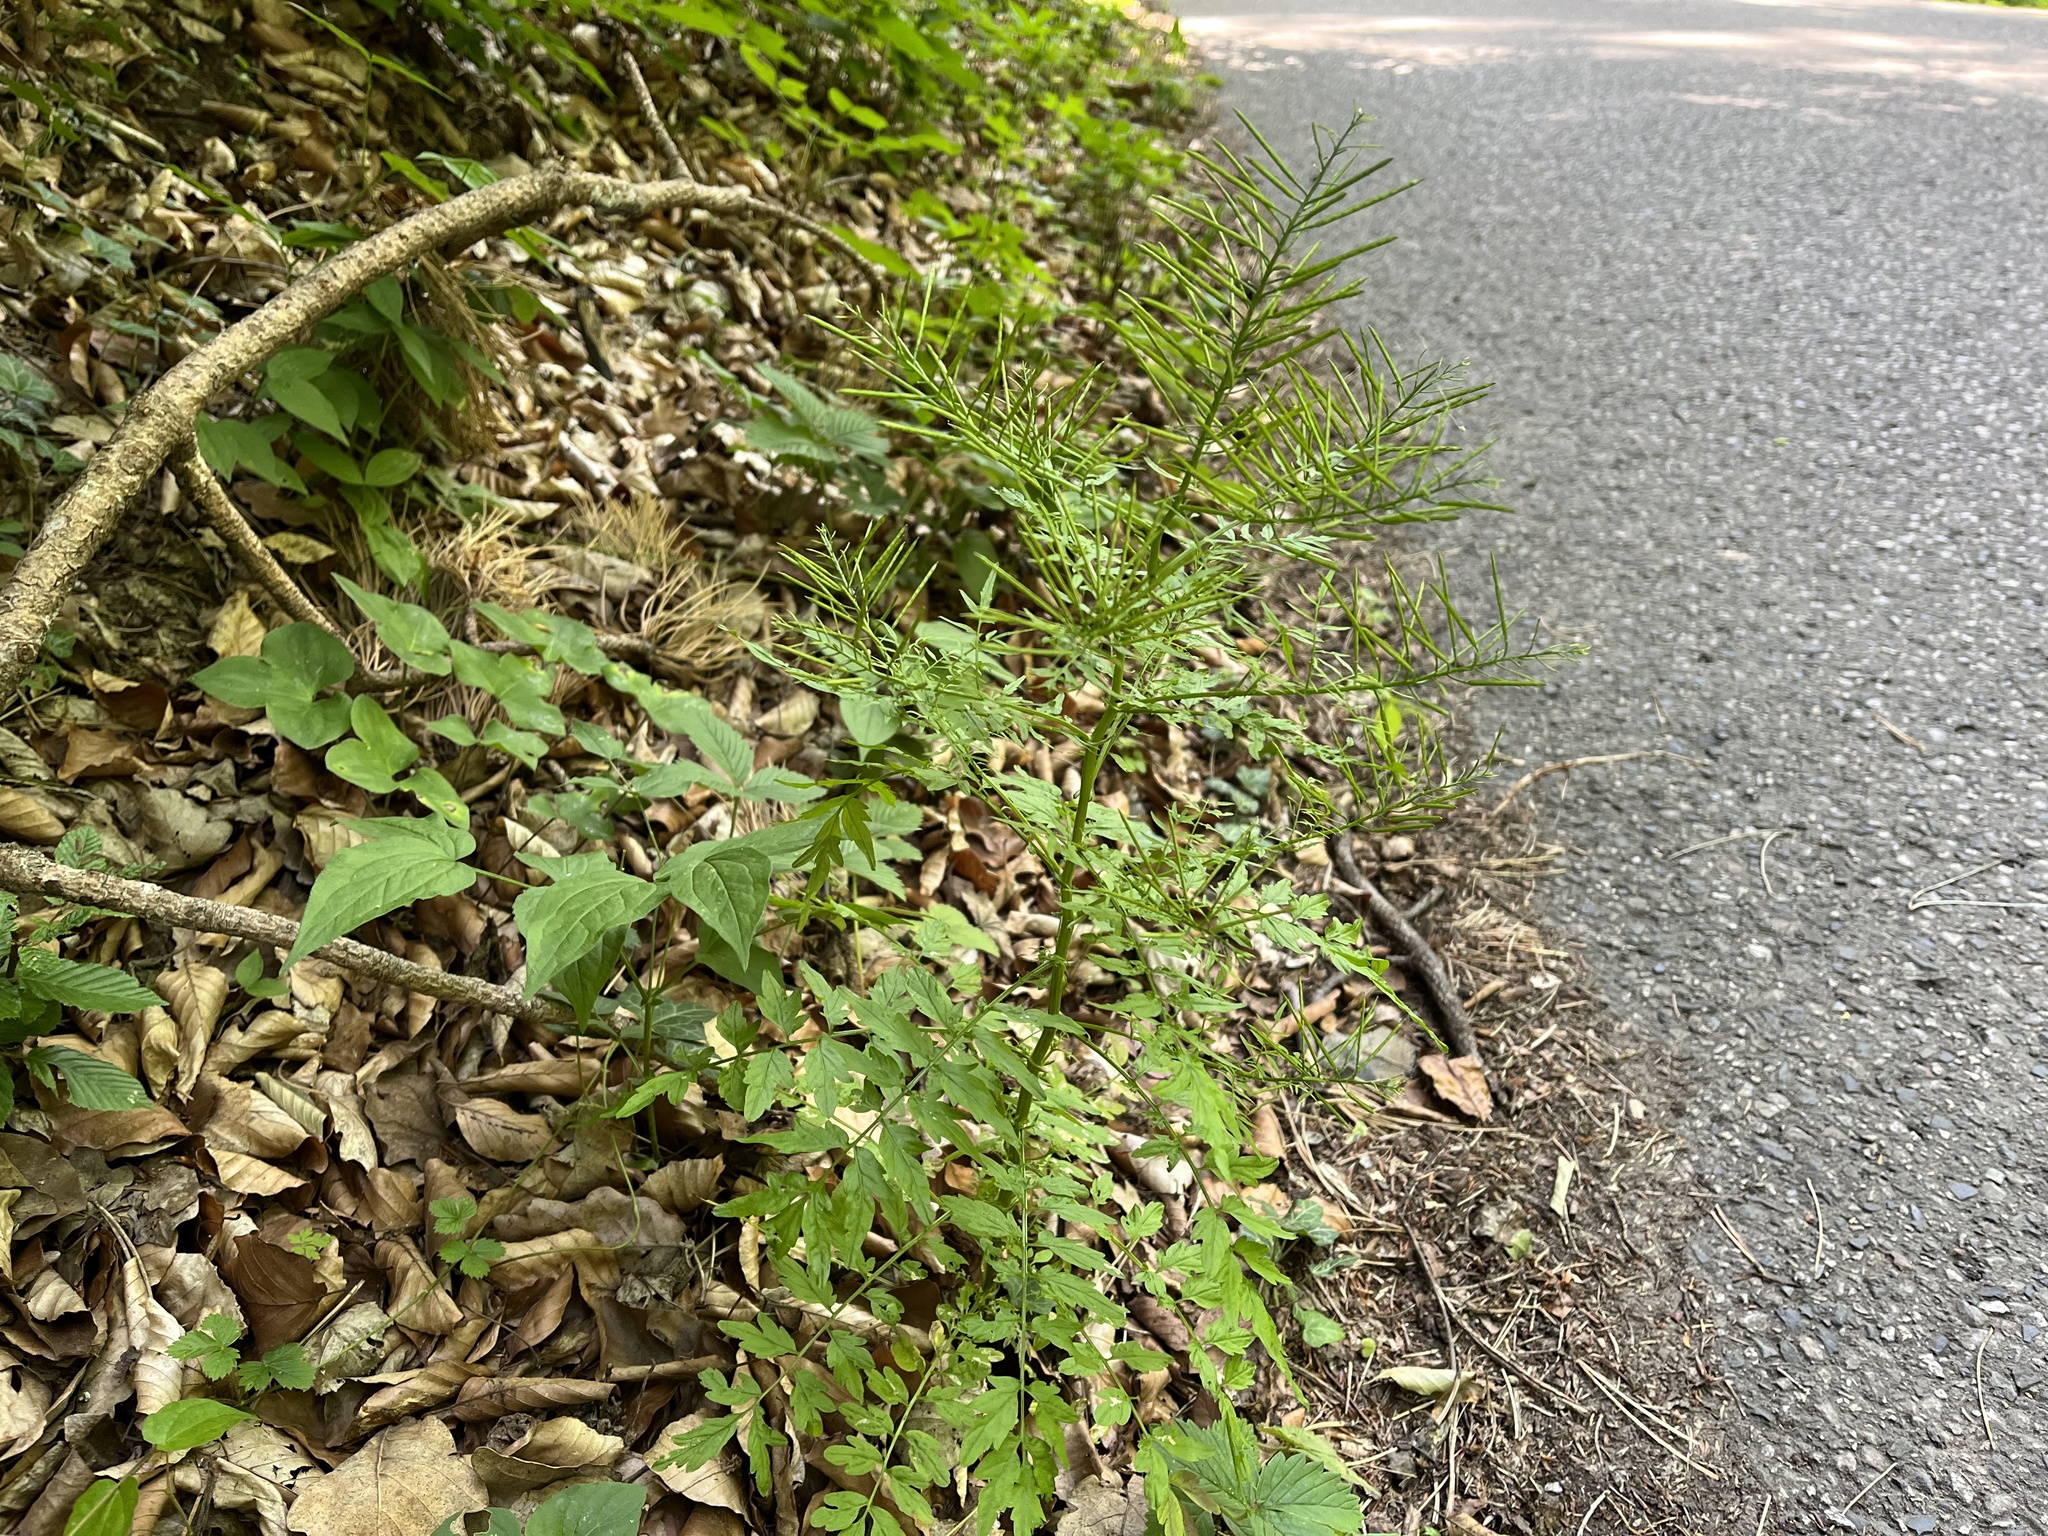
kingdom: Plantae
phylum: Tracheophyta
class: Magnoliopsida
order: Brassicales
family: Brassicaceae
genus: Cardamine
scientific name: Cardamine impatiens
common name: Narrow-leaved bitter-cress
